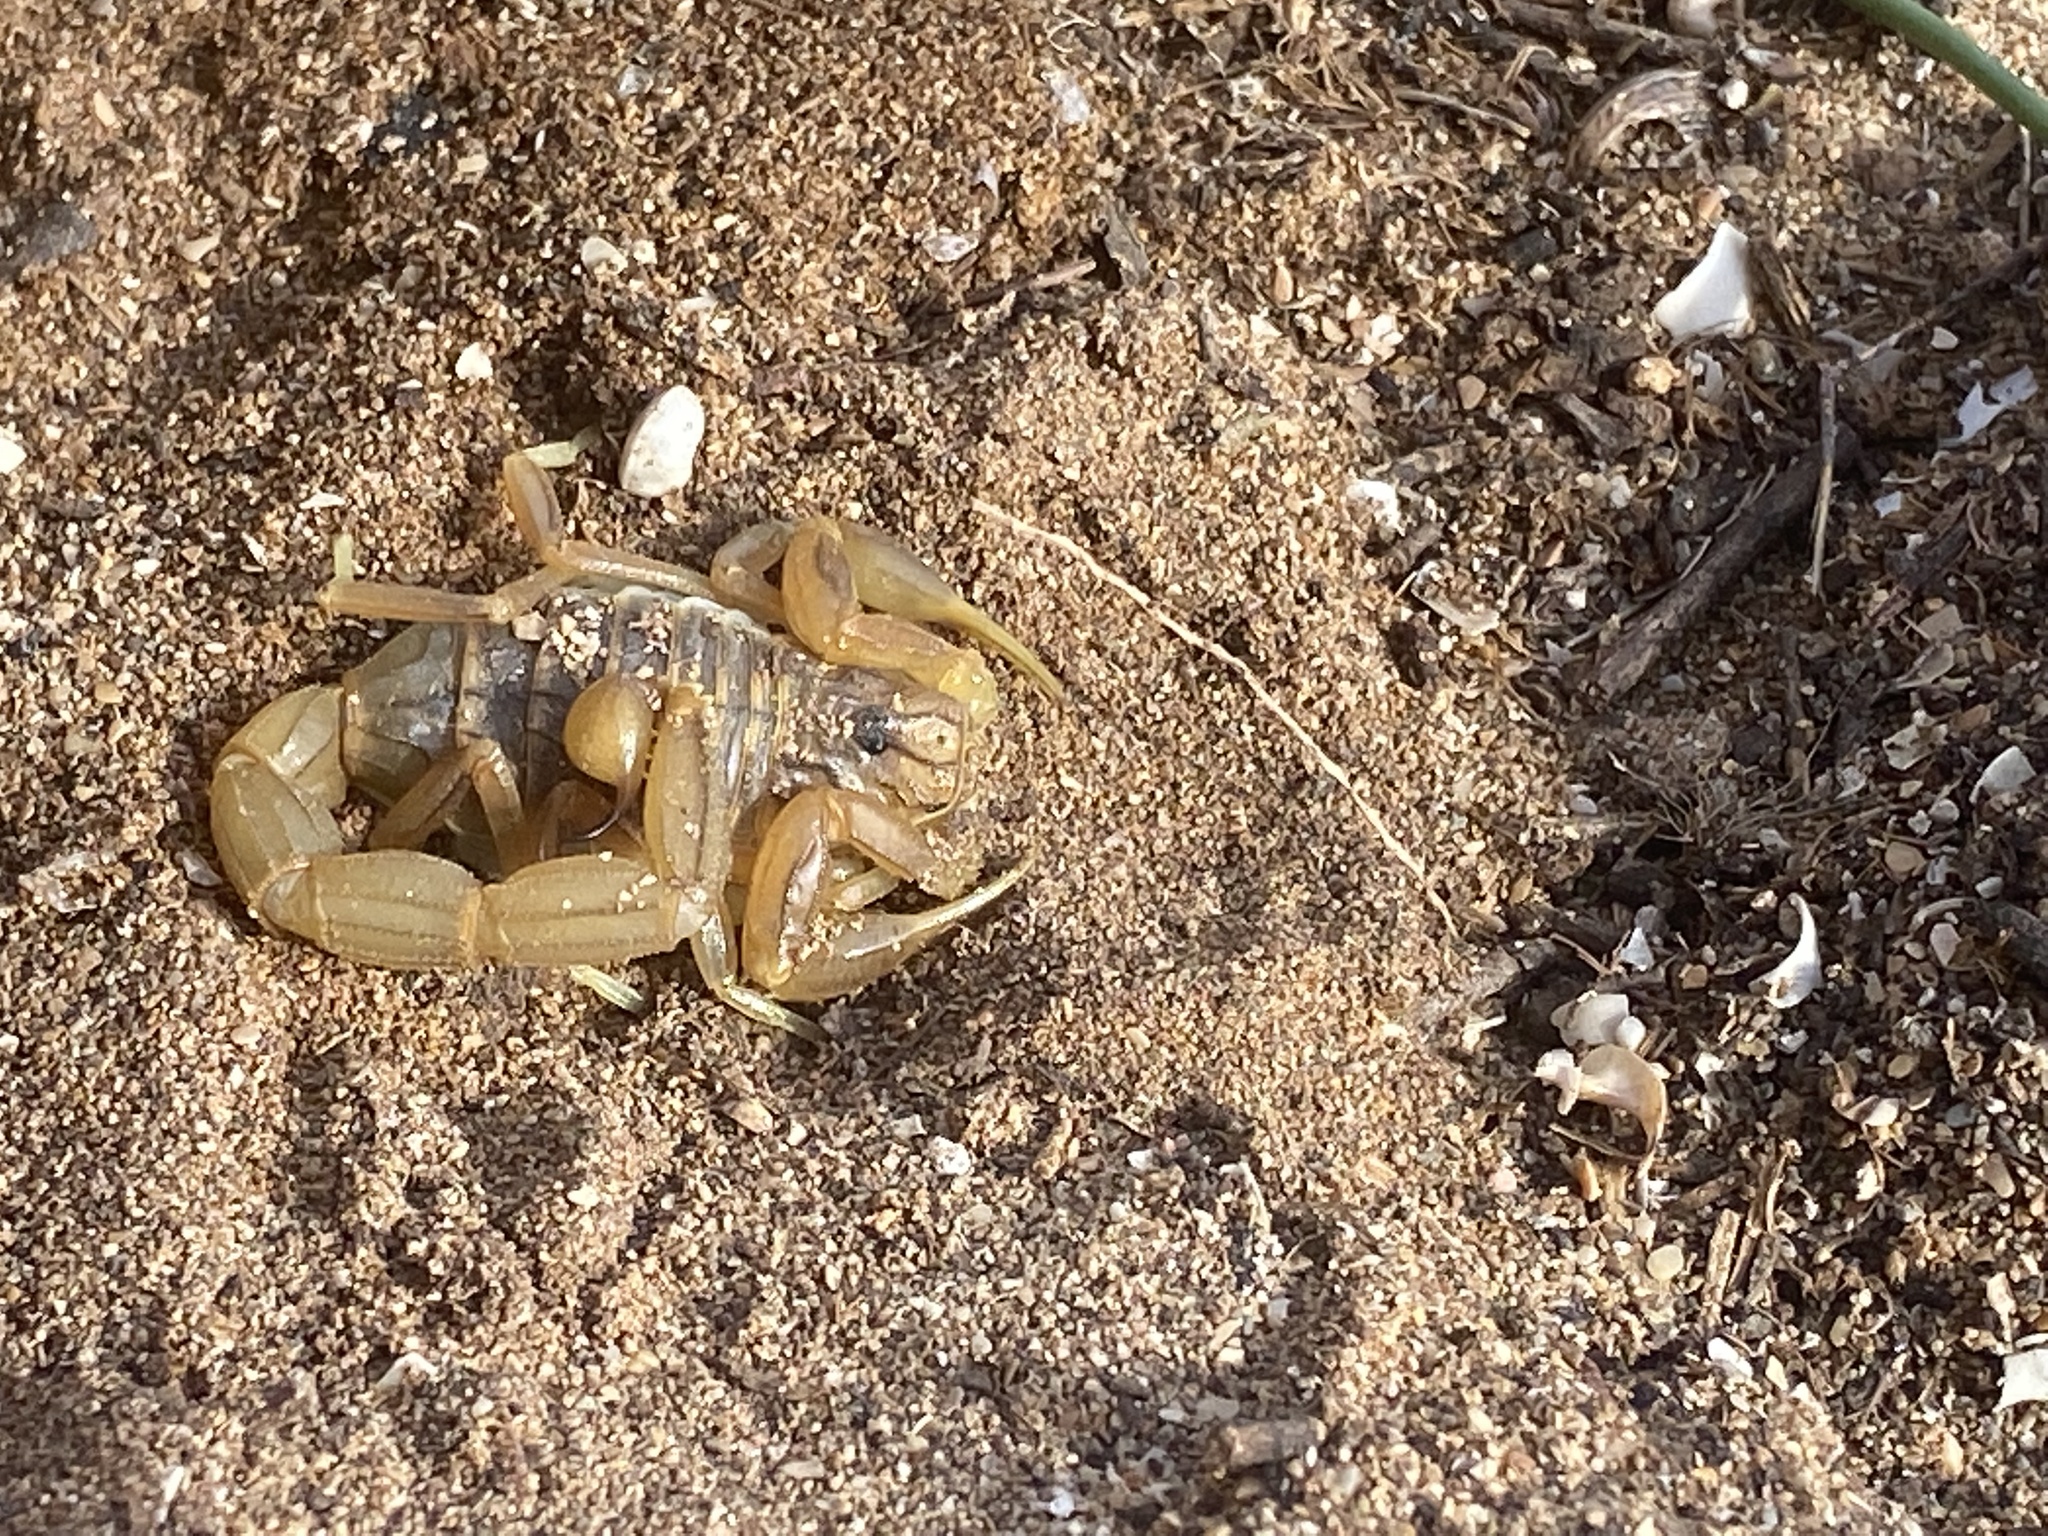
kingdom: Animalia
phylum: Arthropoda
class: Arachnida
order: Scorpiones
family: Buthidae
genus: Buthus
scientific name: Buthus atlantis
